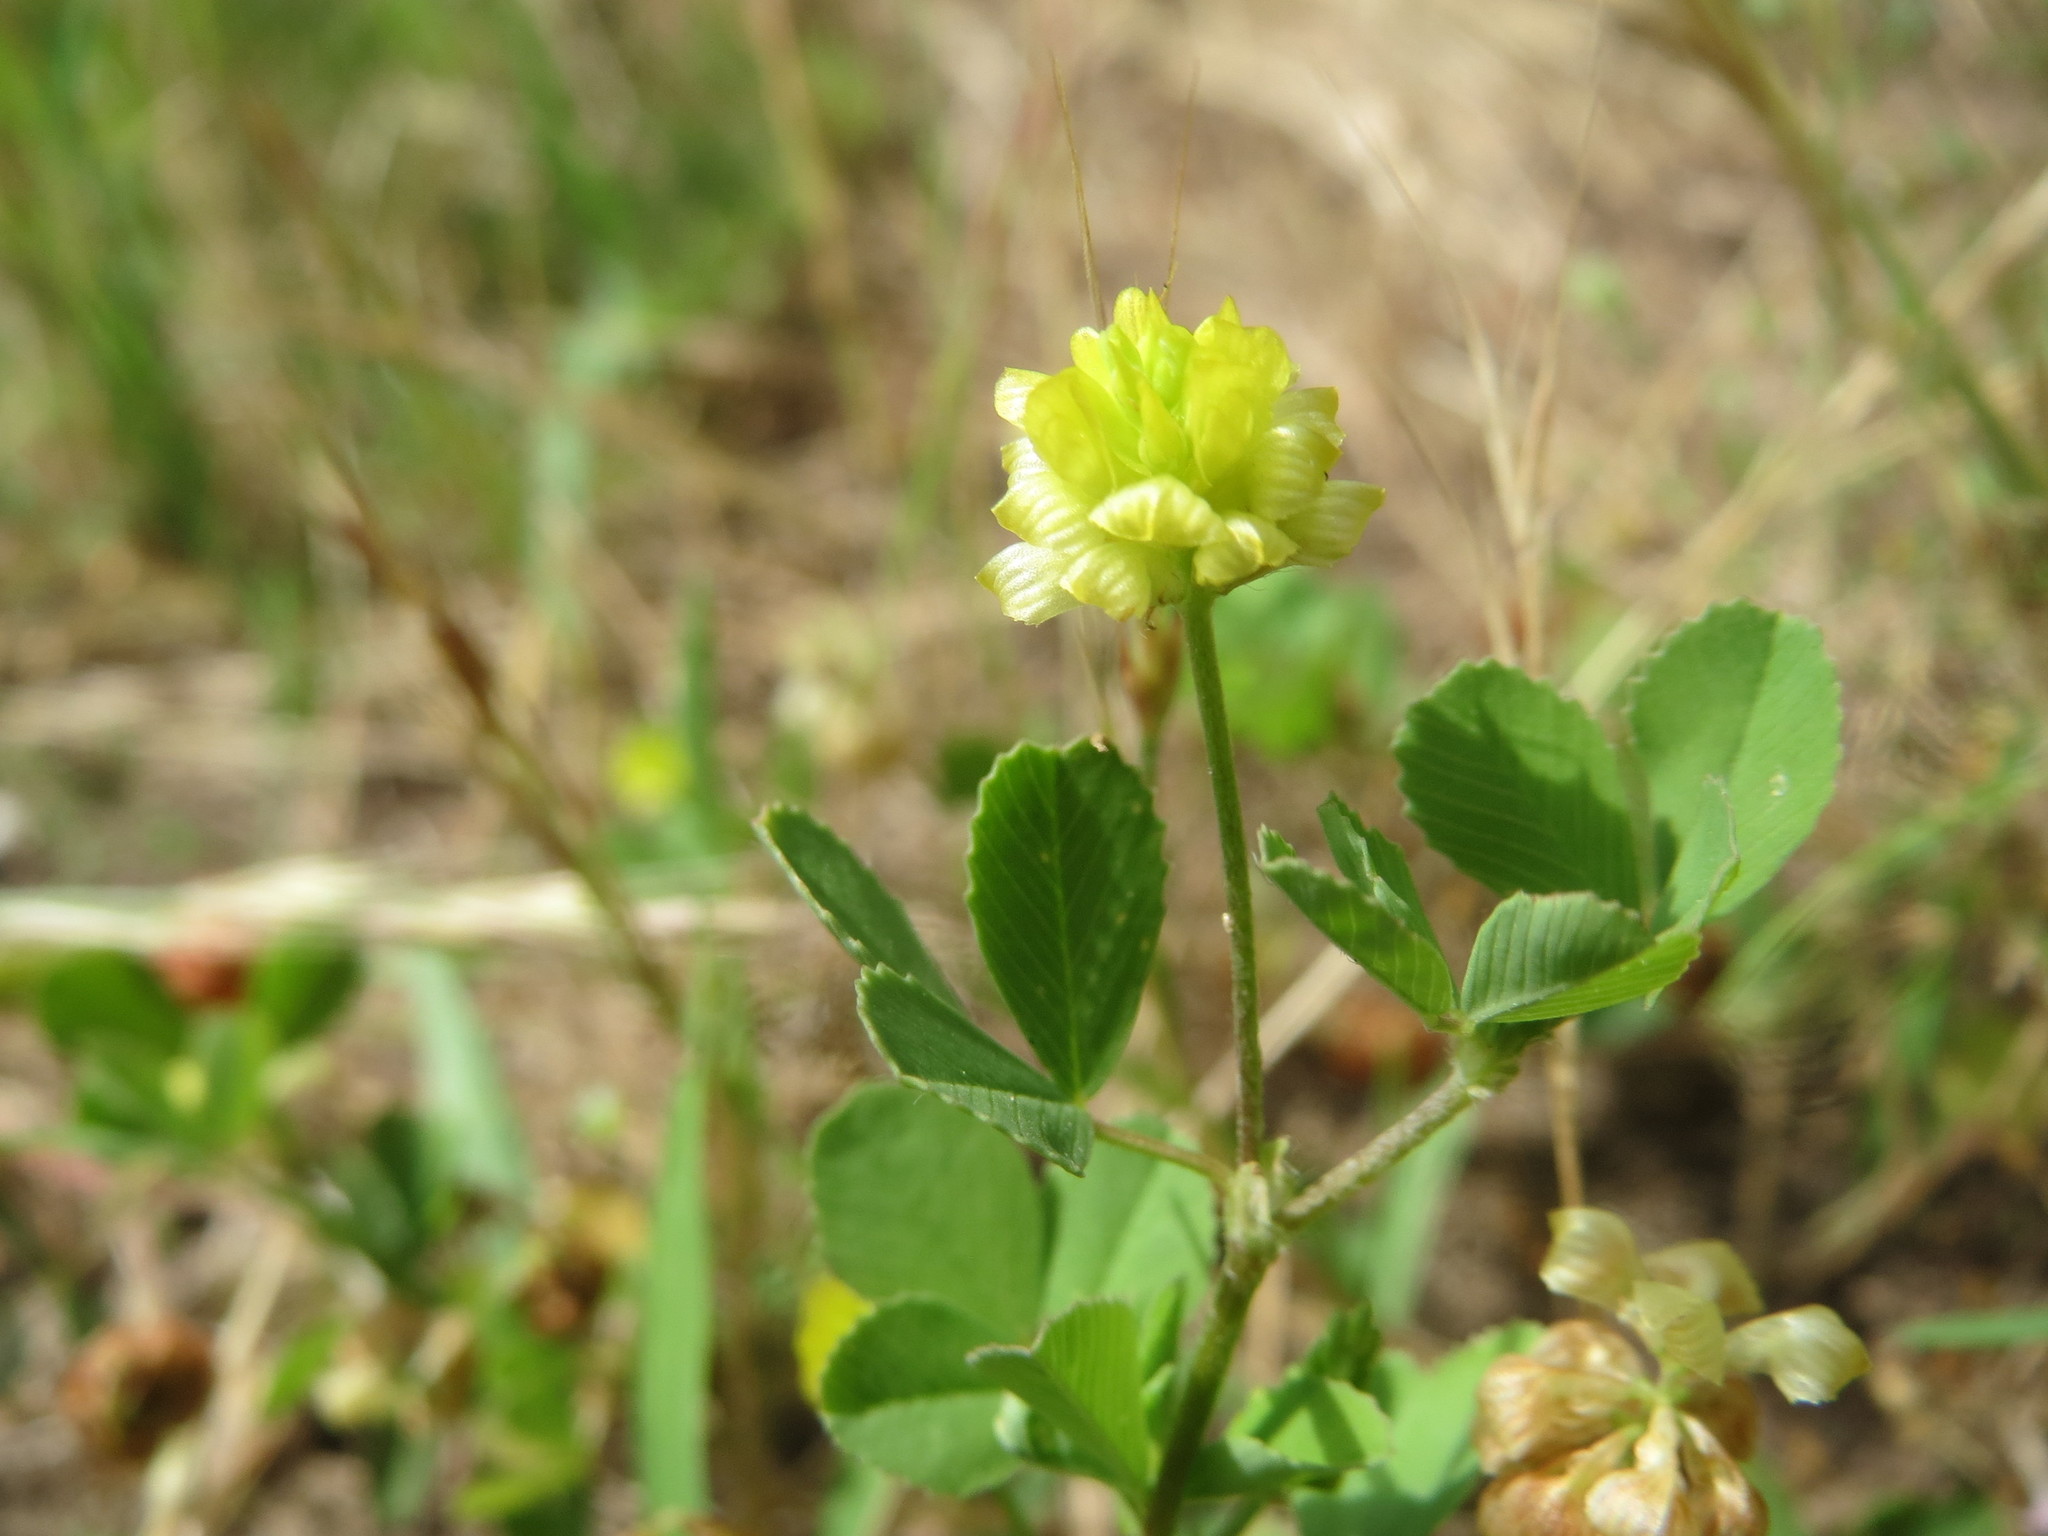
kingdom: Plantae
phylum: Tracheophyta
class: Magnoliopsida
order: Fabales
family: Fabaceae
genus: Trifolium
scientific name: Trifolium campestre
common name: Field clover
